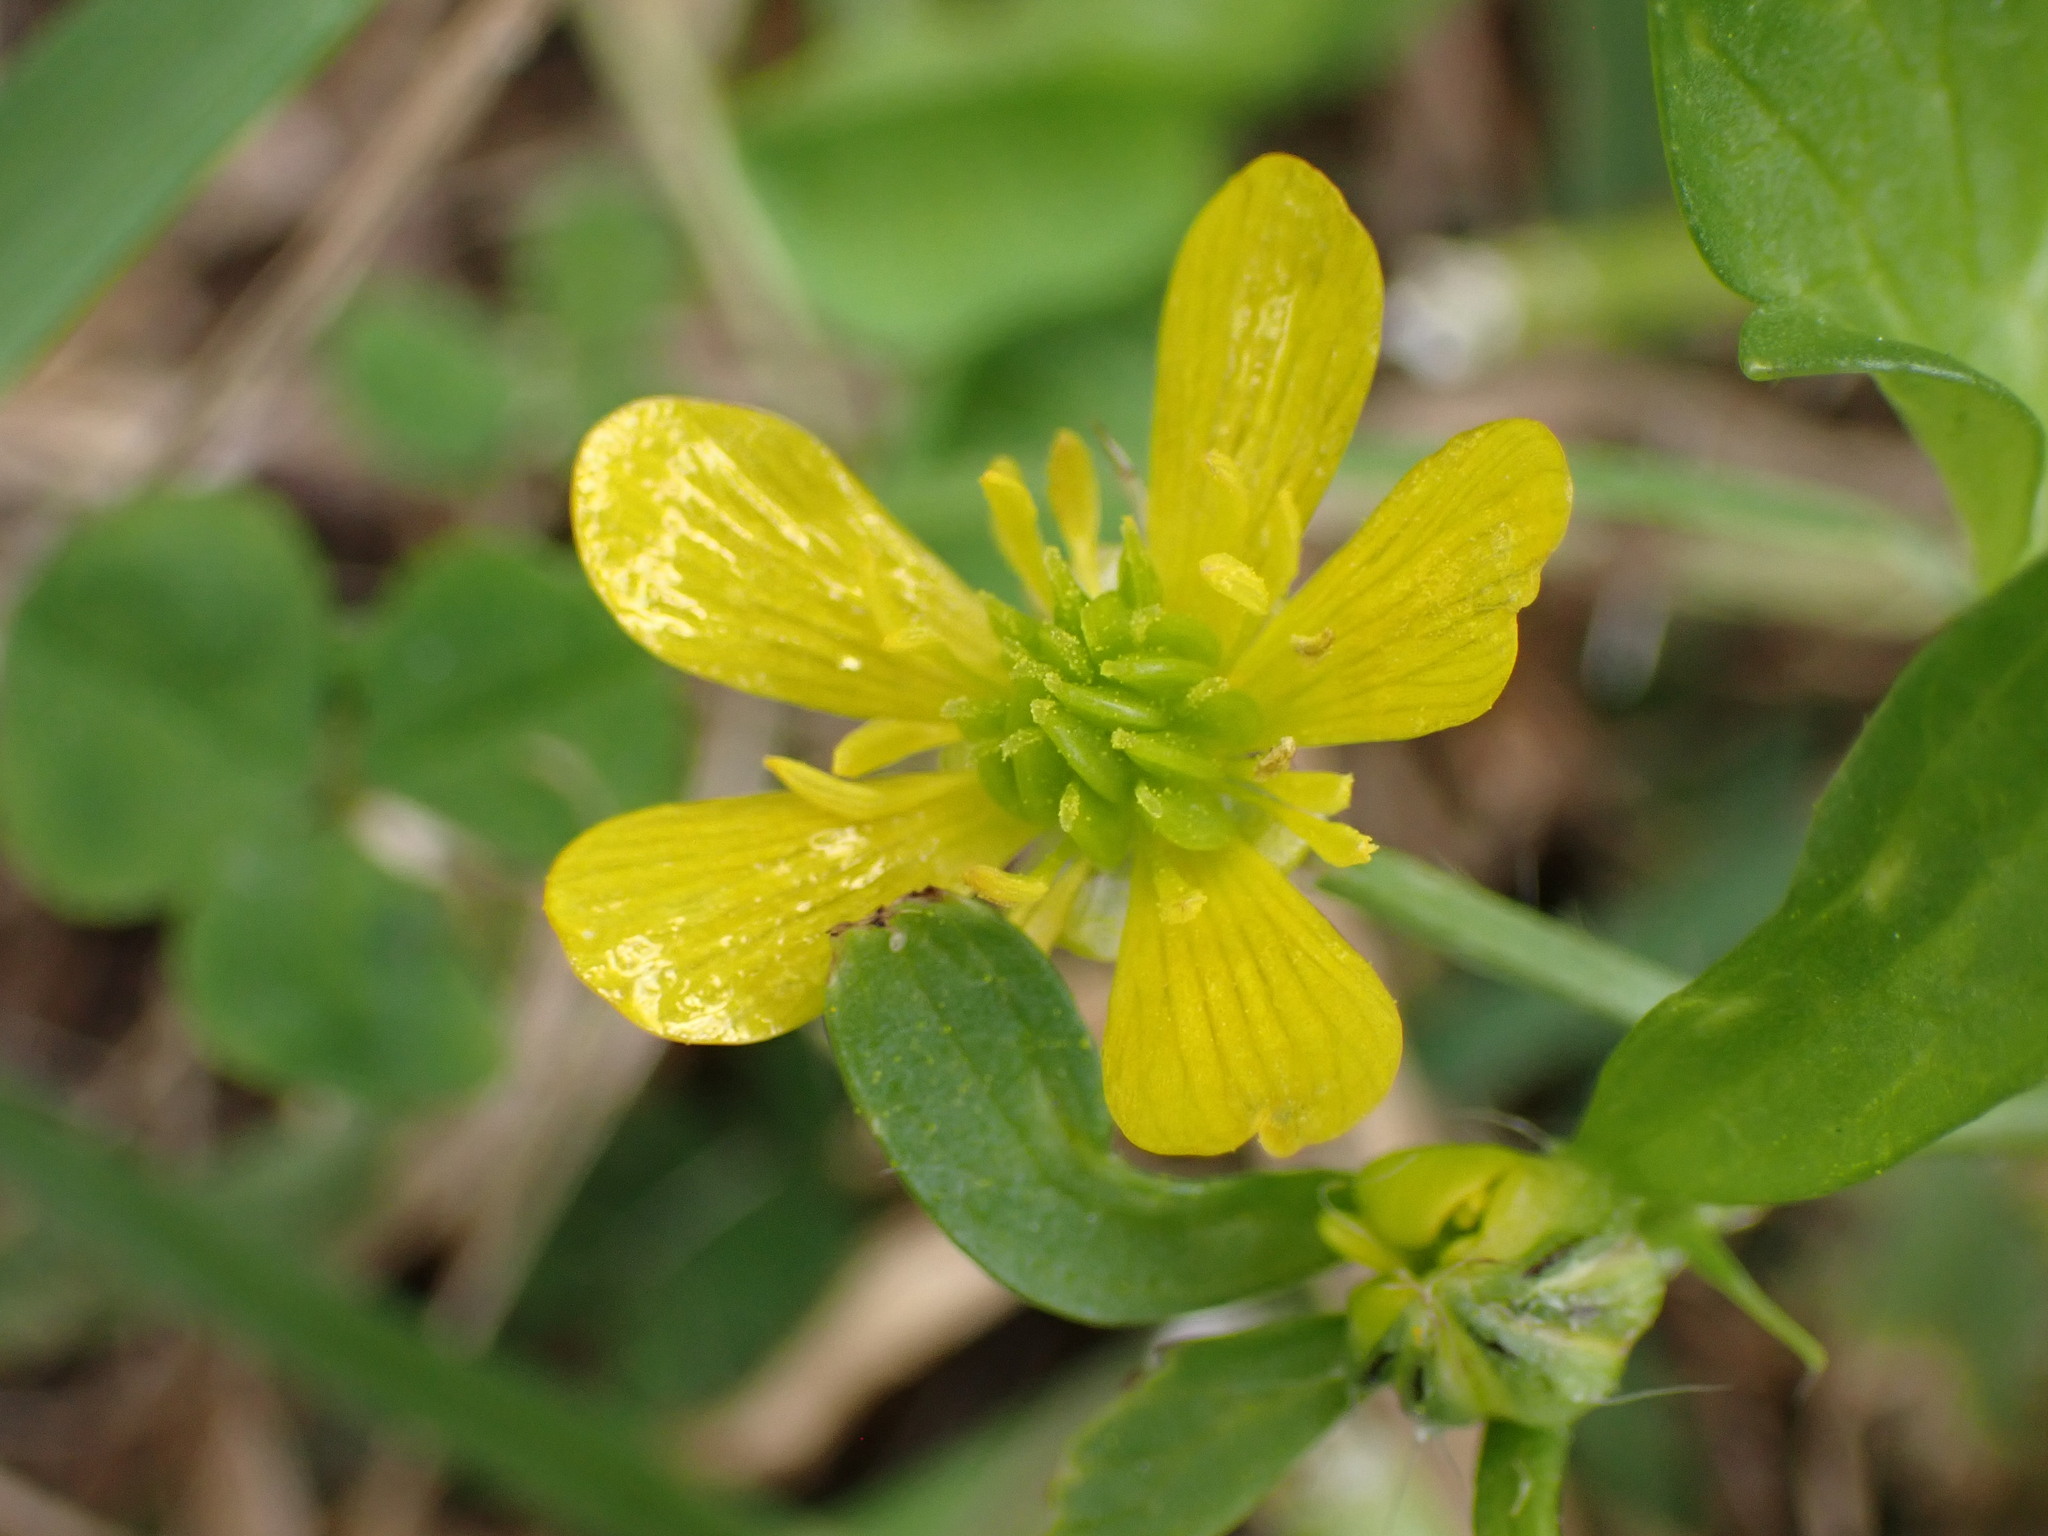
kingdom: Plantae
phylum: Tracheophyta
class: Magnoliopsida
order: Ranunculales
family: Ranunculaceae
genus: Ranunculus
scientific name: Ranunculus muricatus
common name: Rough-fruited buttercup
